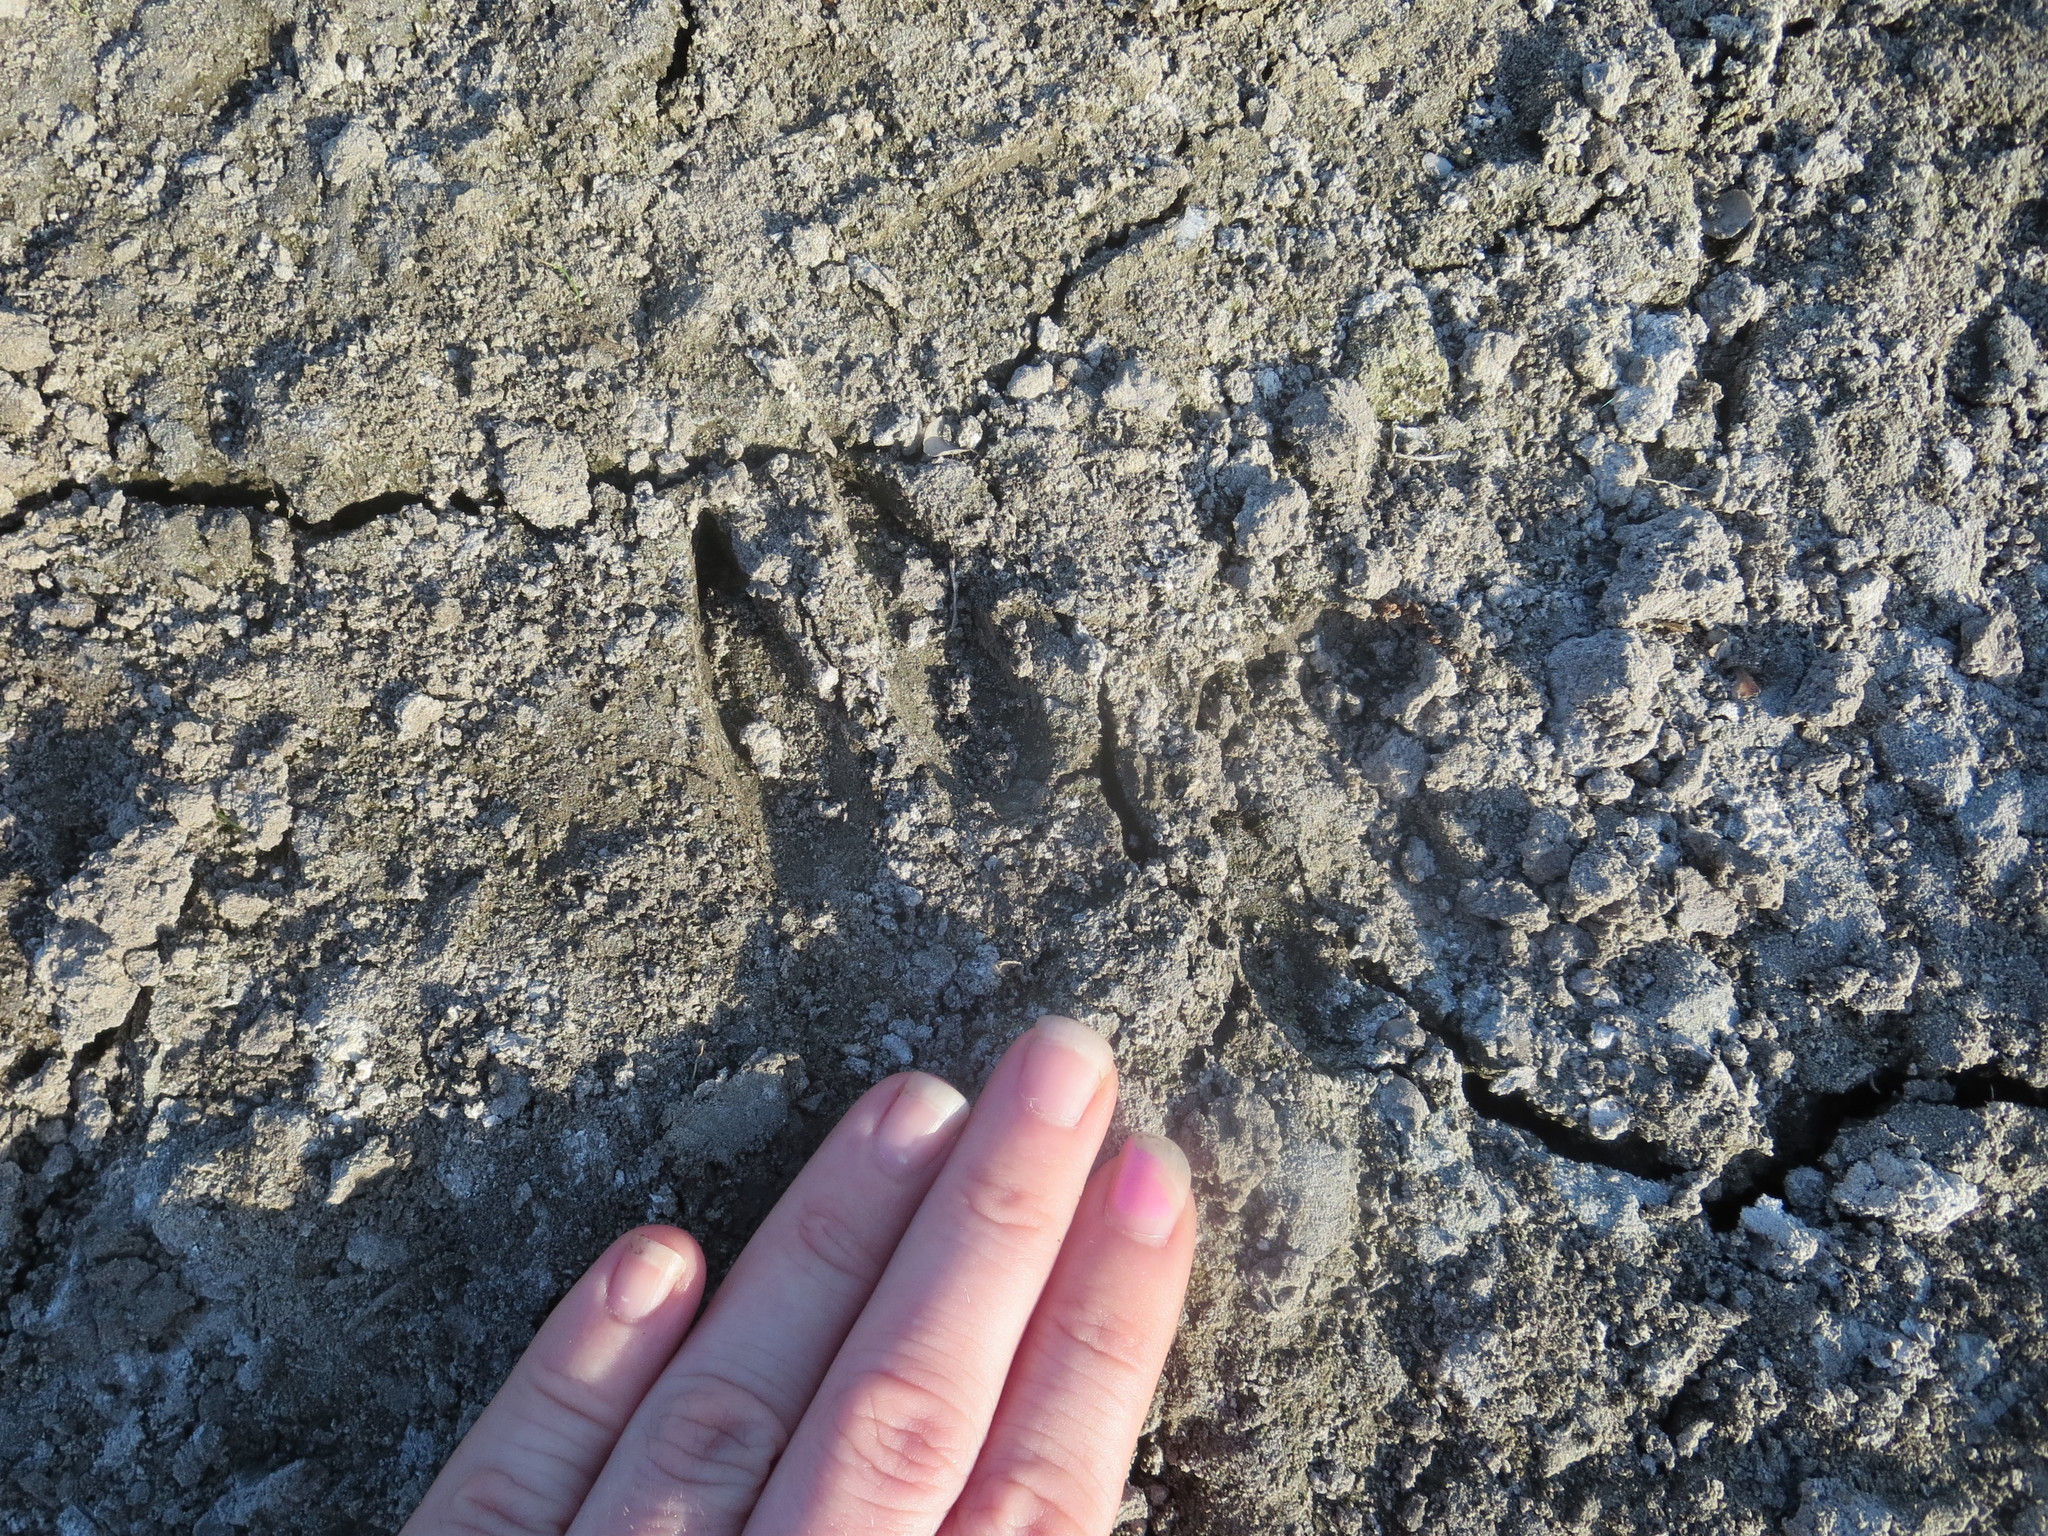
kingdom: Animalia
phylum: Chordata
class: Mammalia
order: Artiodactyla
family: Cervidae
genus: Odocoileus
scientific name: Odocoileus virginianus
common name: White-tailed deer
